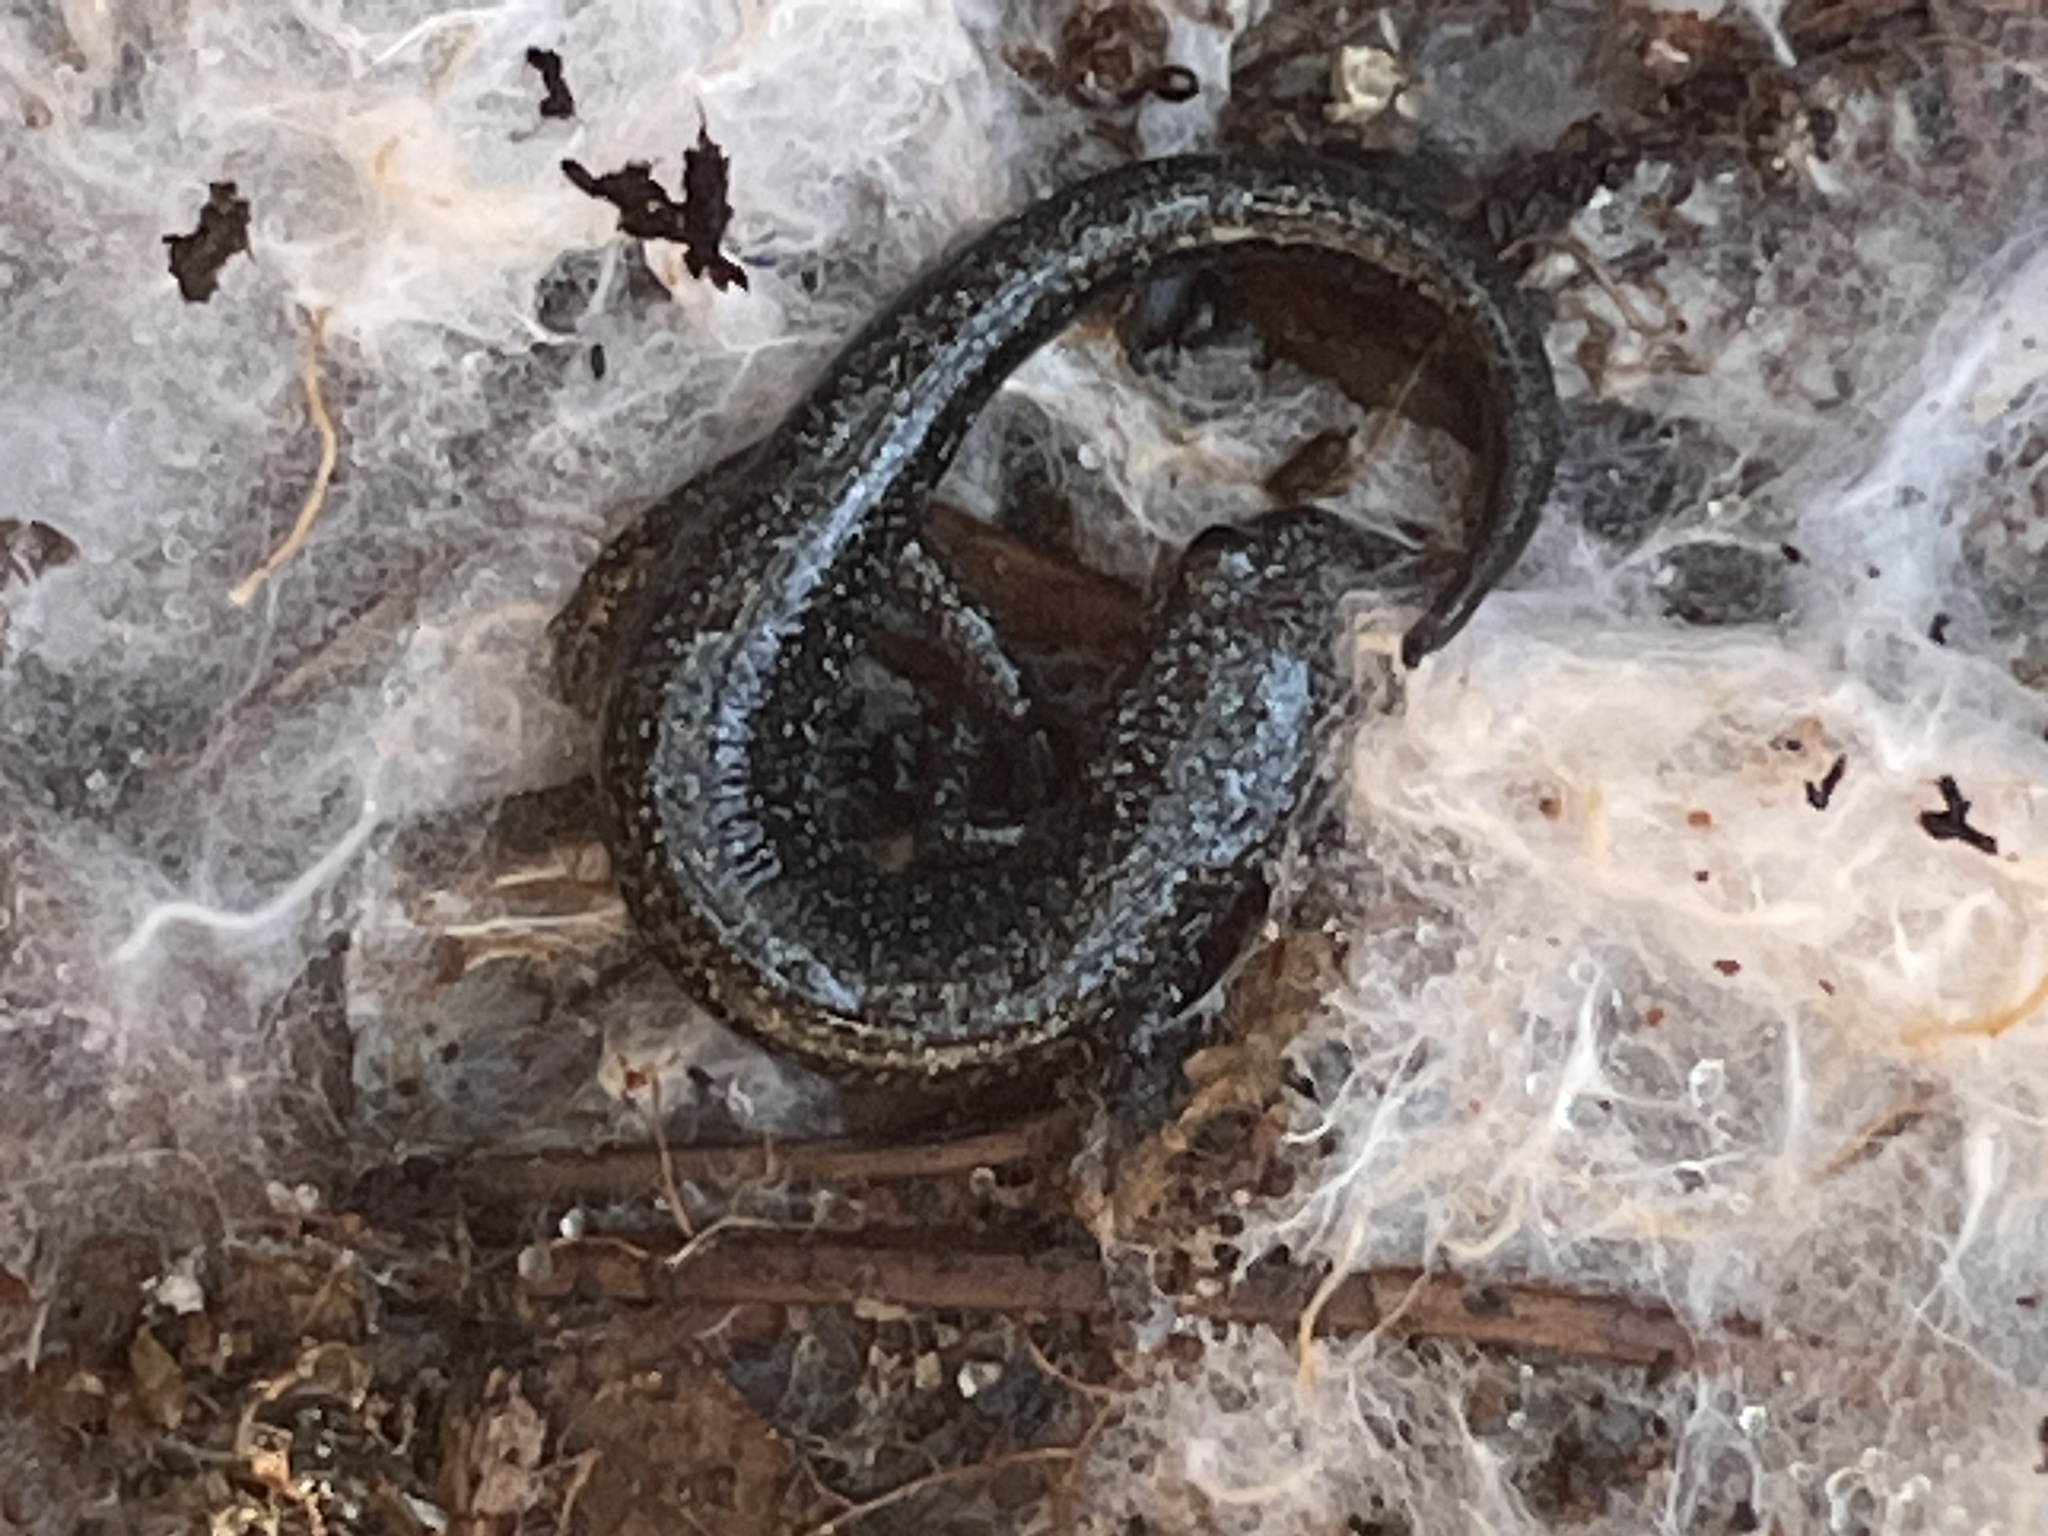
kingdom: Animalia
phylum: Chordata
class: Amphibia
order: Caudata
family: Plethodontidae
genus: Plethodon
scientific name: Plethodon cinereus
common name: Redback salamander
